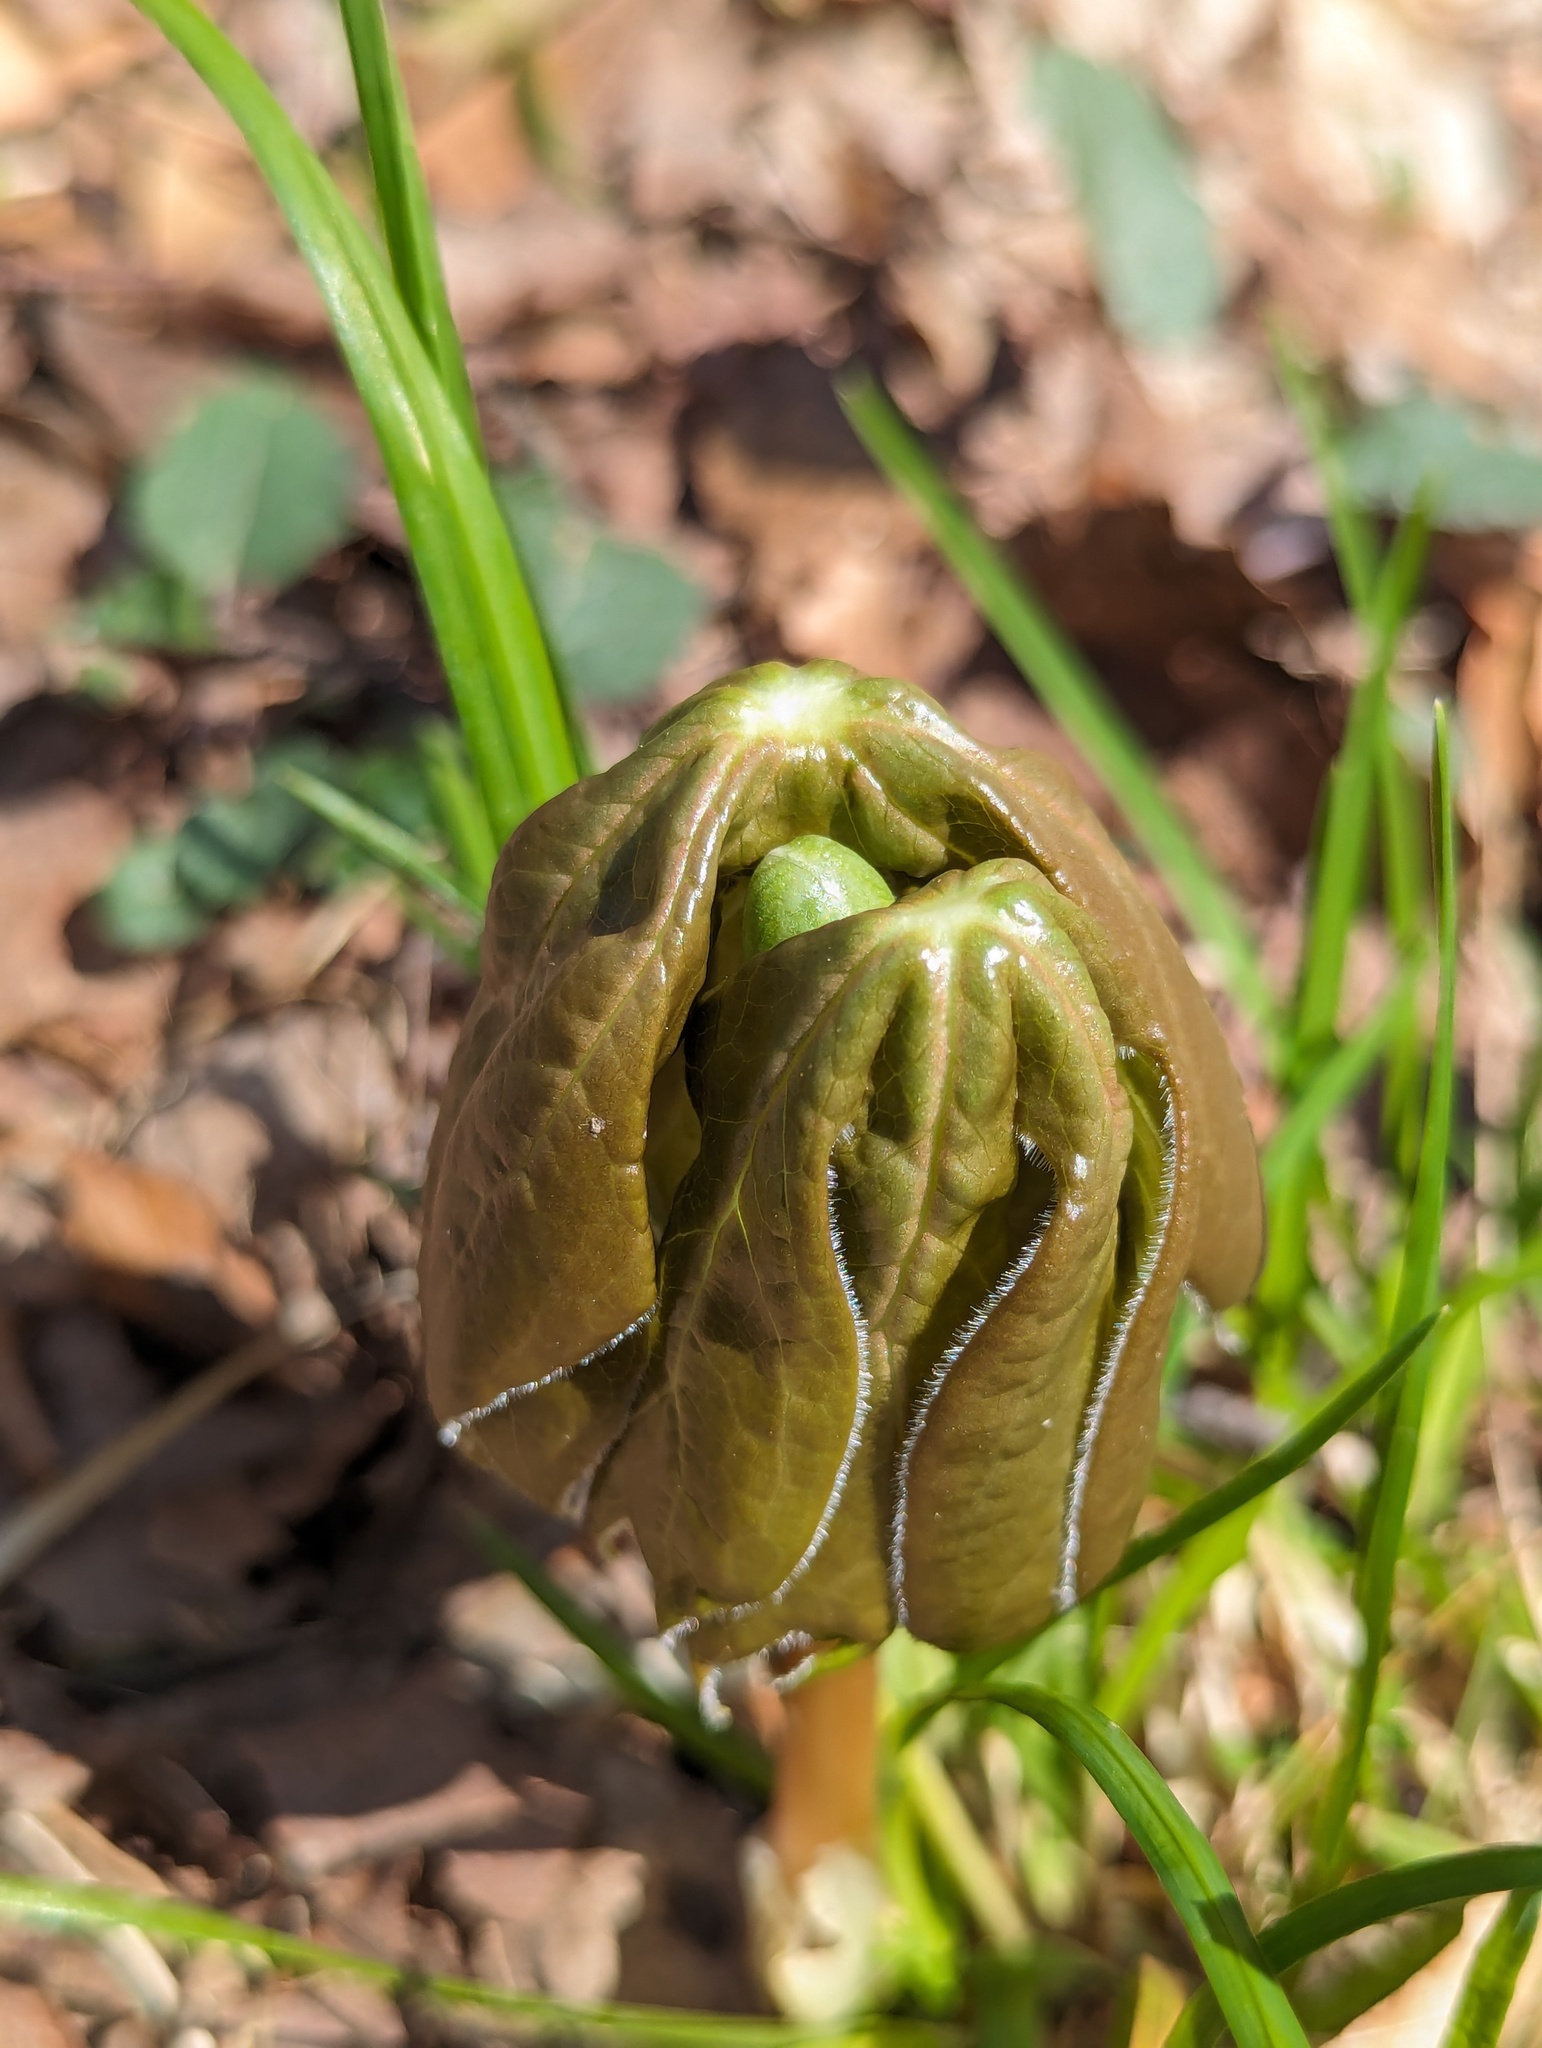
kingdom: Plantae
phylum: Tracheophyta
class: Magnoliopsida
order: Ranunculales
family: Berberidaceae
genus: Podophyllum
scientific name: Podophyllum peltatum
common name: Wild mandrake
